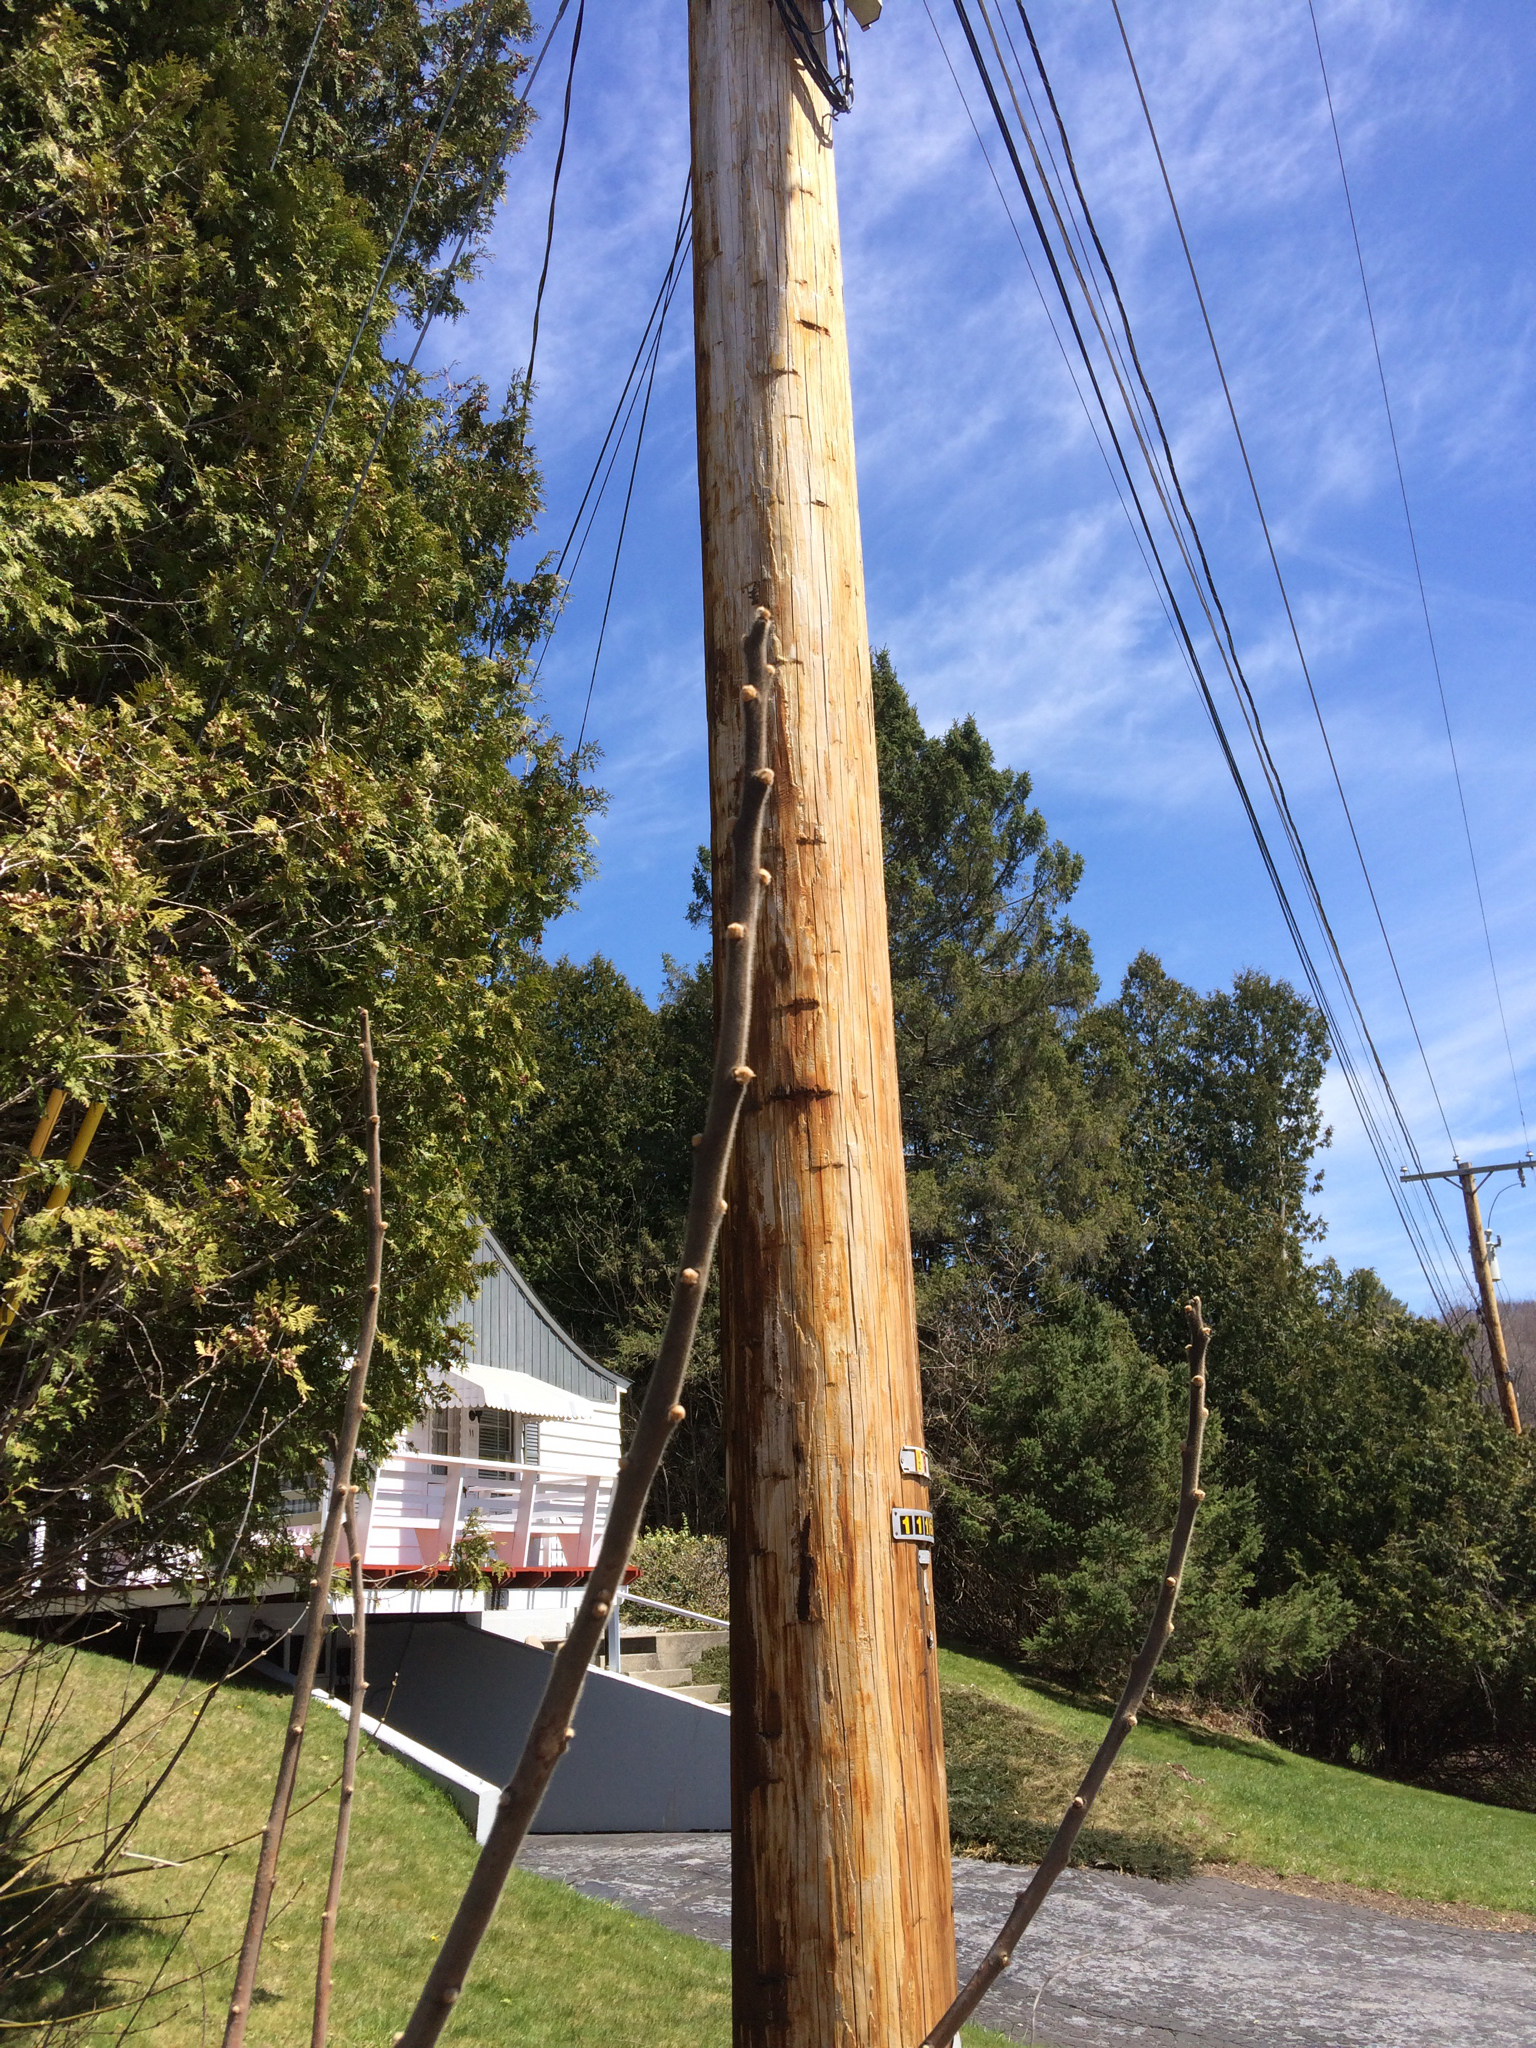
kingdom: Plantae
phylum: Tracheophyta
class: Magnoliopsida
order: Sapindales
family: Anacardiaceae
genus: Rhus
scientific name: Rhus typhina
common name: Staghorn sumac
